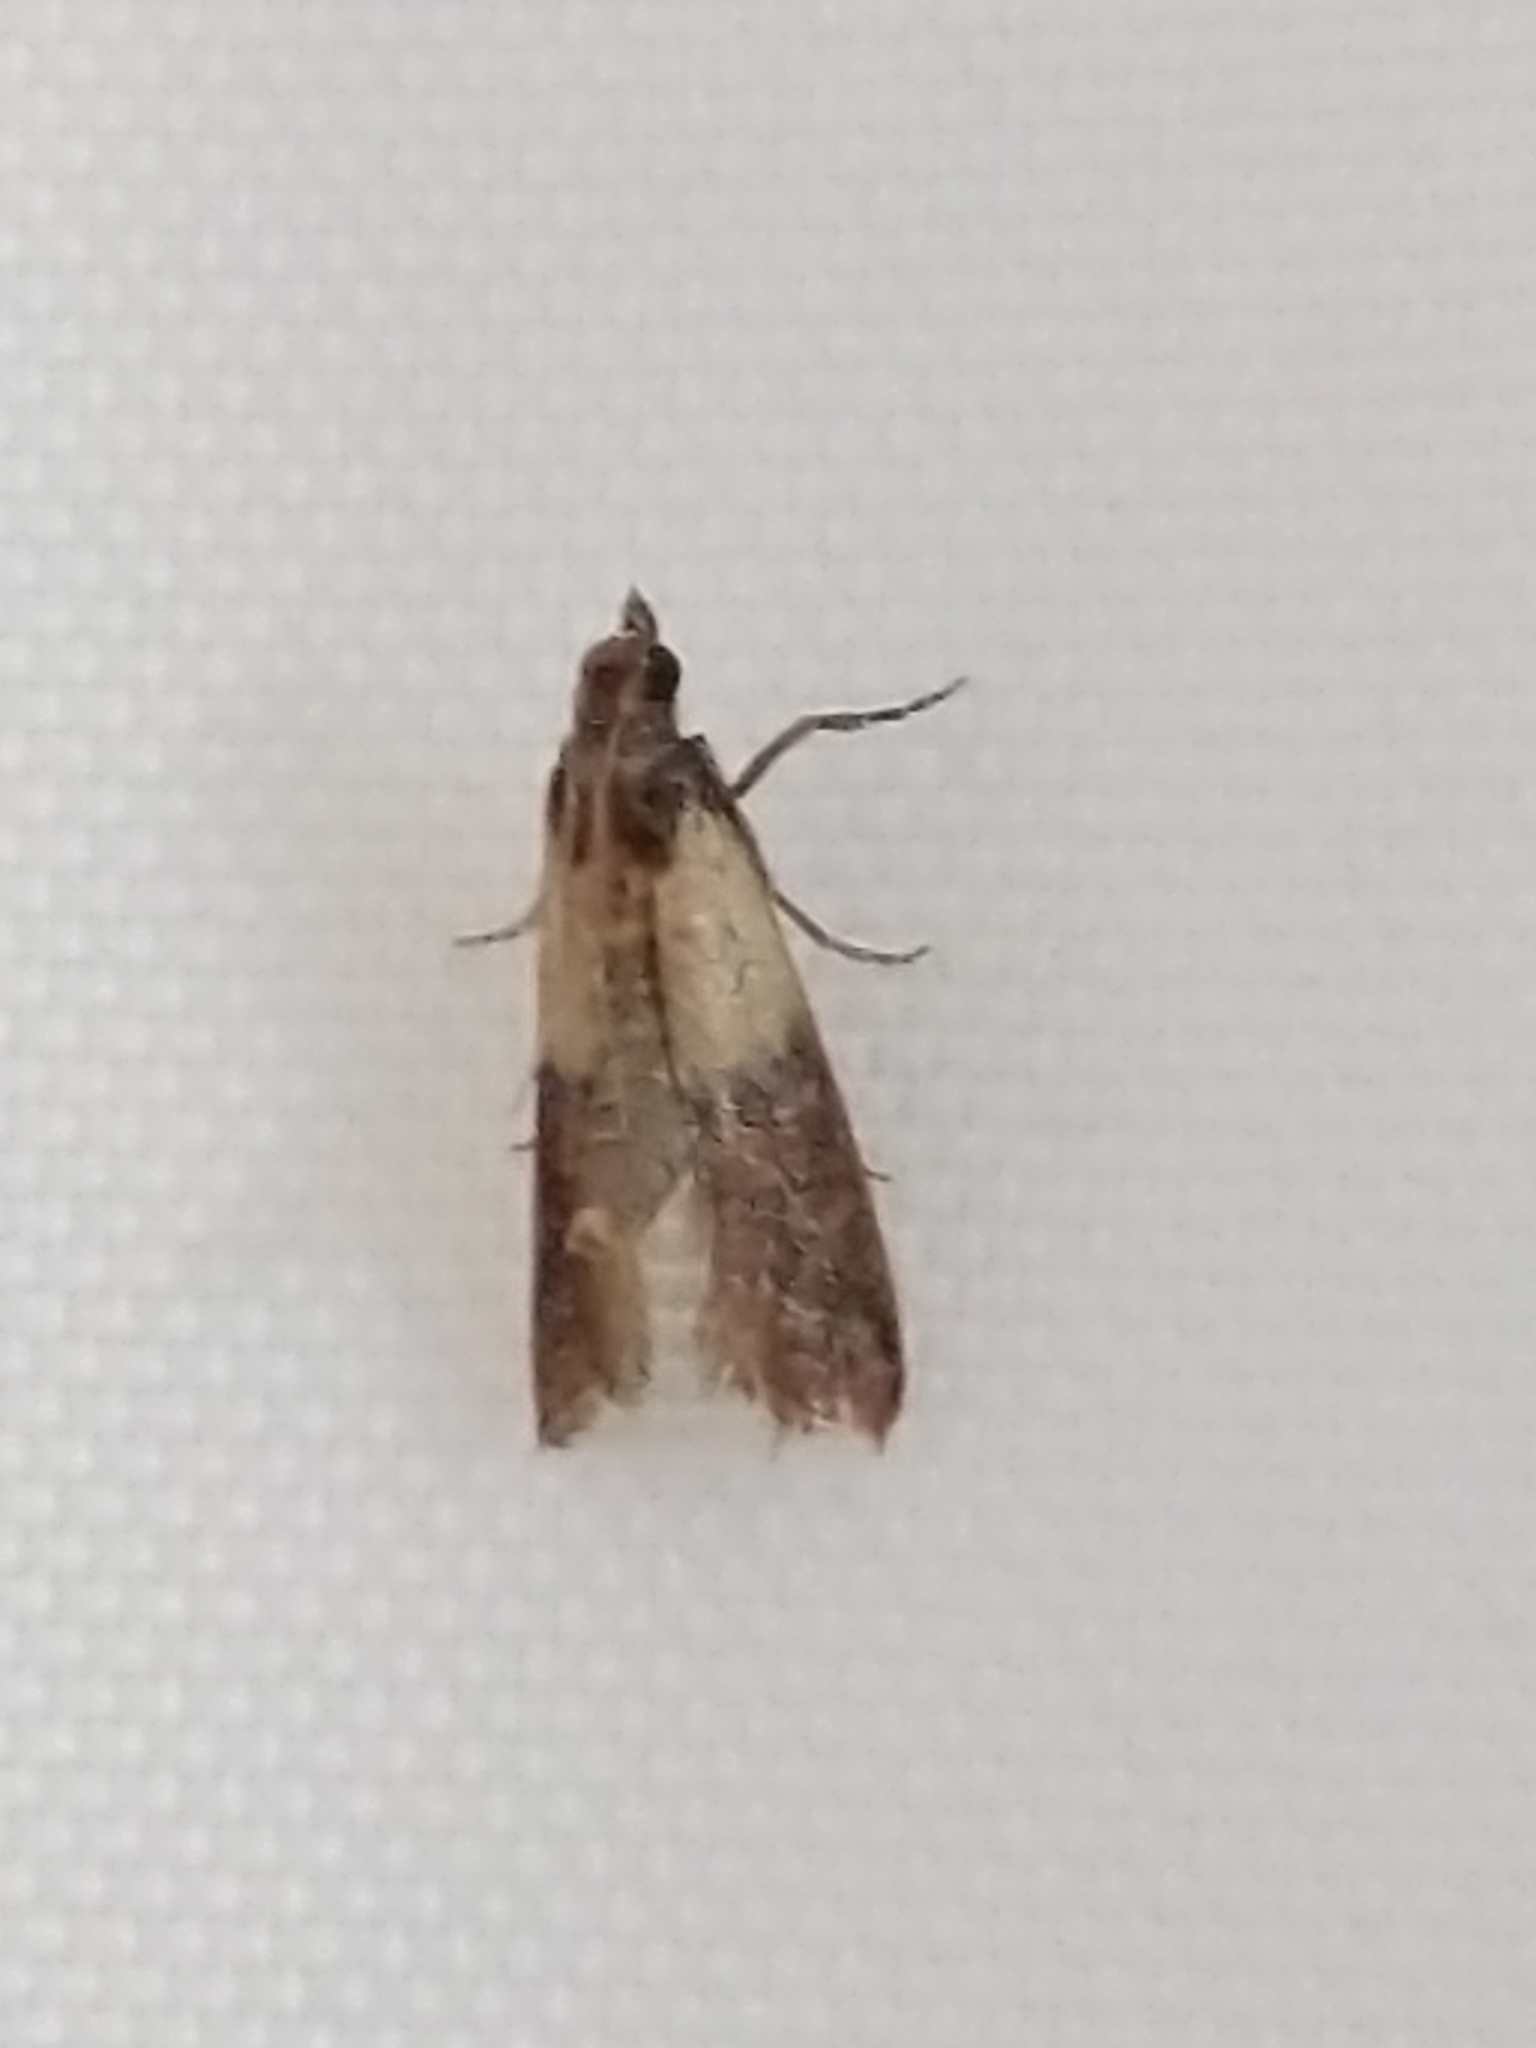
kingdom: Animalia
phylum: Arthropoda
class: Insecta
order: Lepidoptera
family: Pyralidae
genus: Plodia
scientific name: Plodia interpunctella
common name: Indian meal moth
